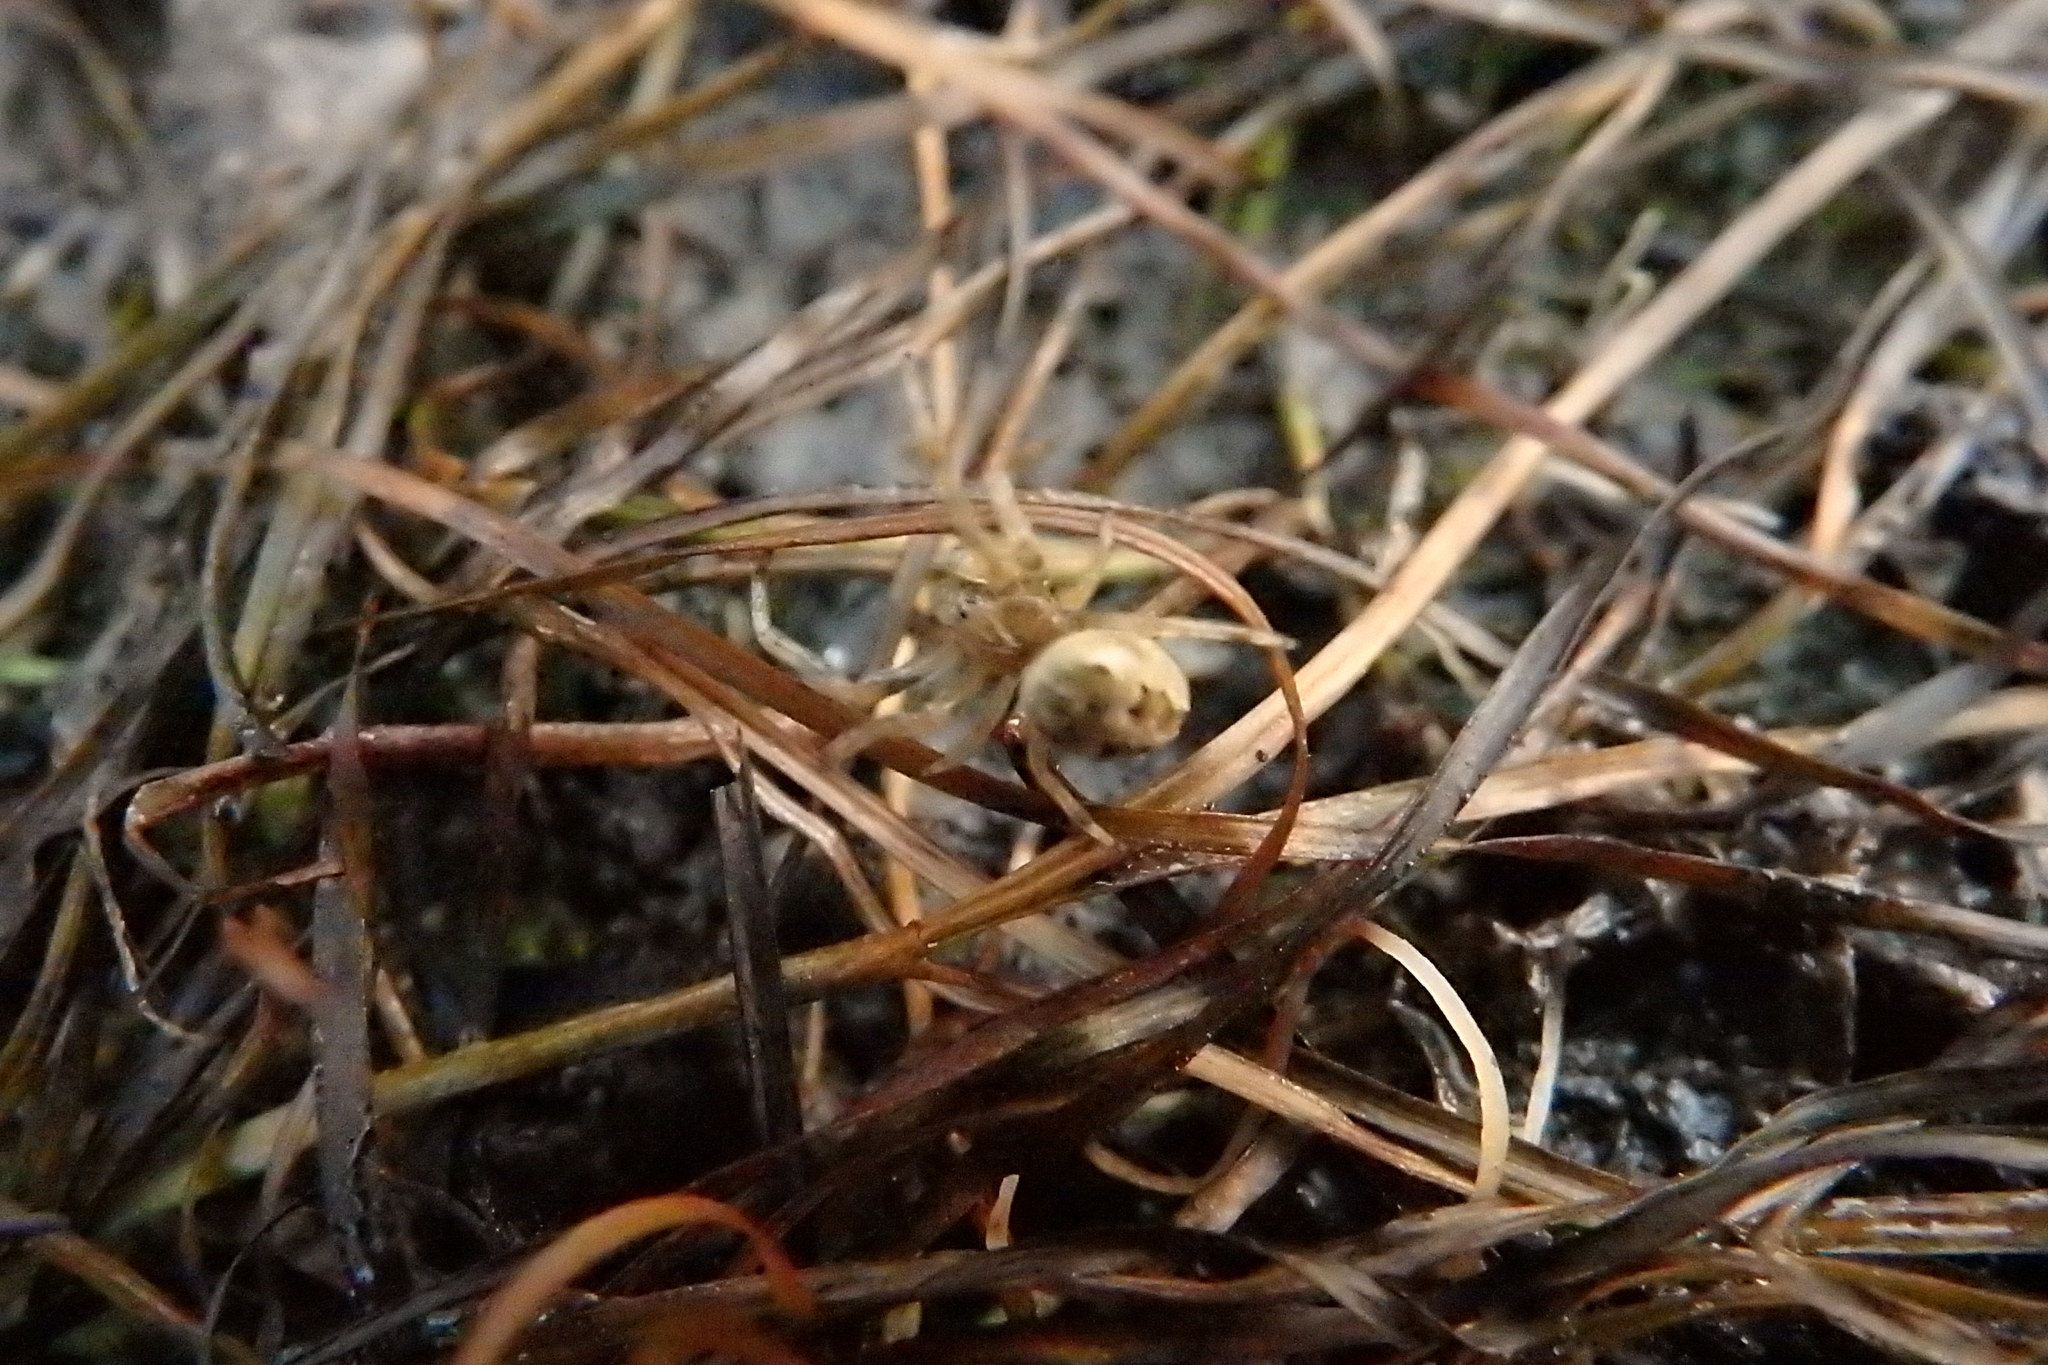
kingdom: Animalia
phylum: Arthropoda
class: Arachnida
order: Araneae
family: Araneidae
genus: Araneus
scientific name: Araneus pallidus
